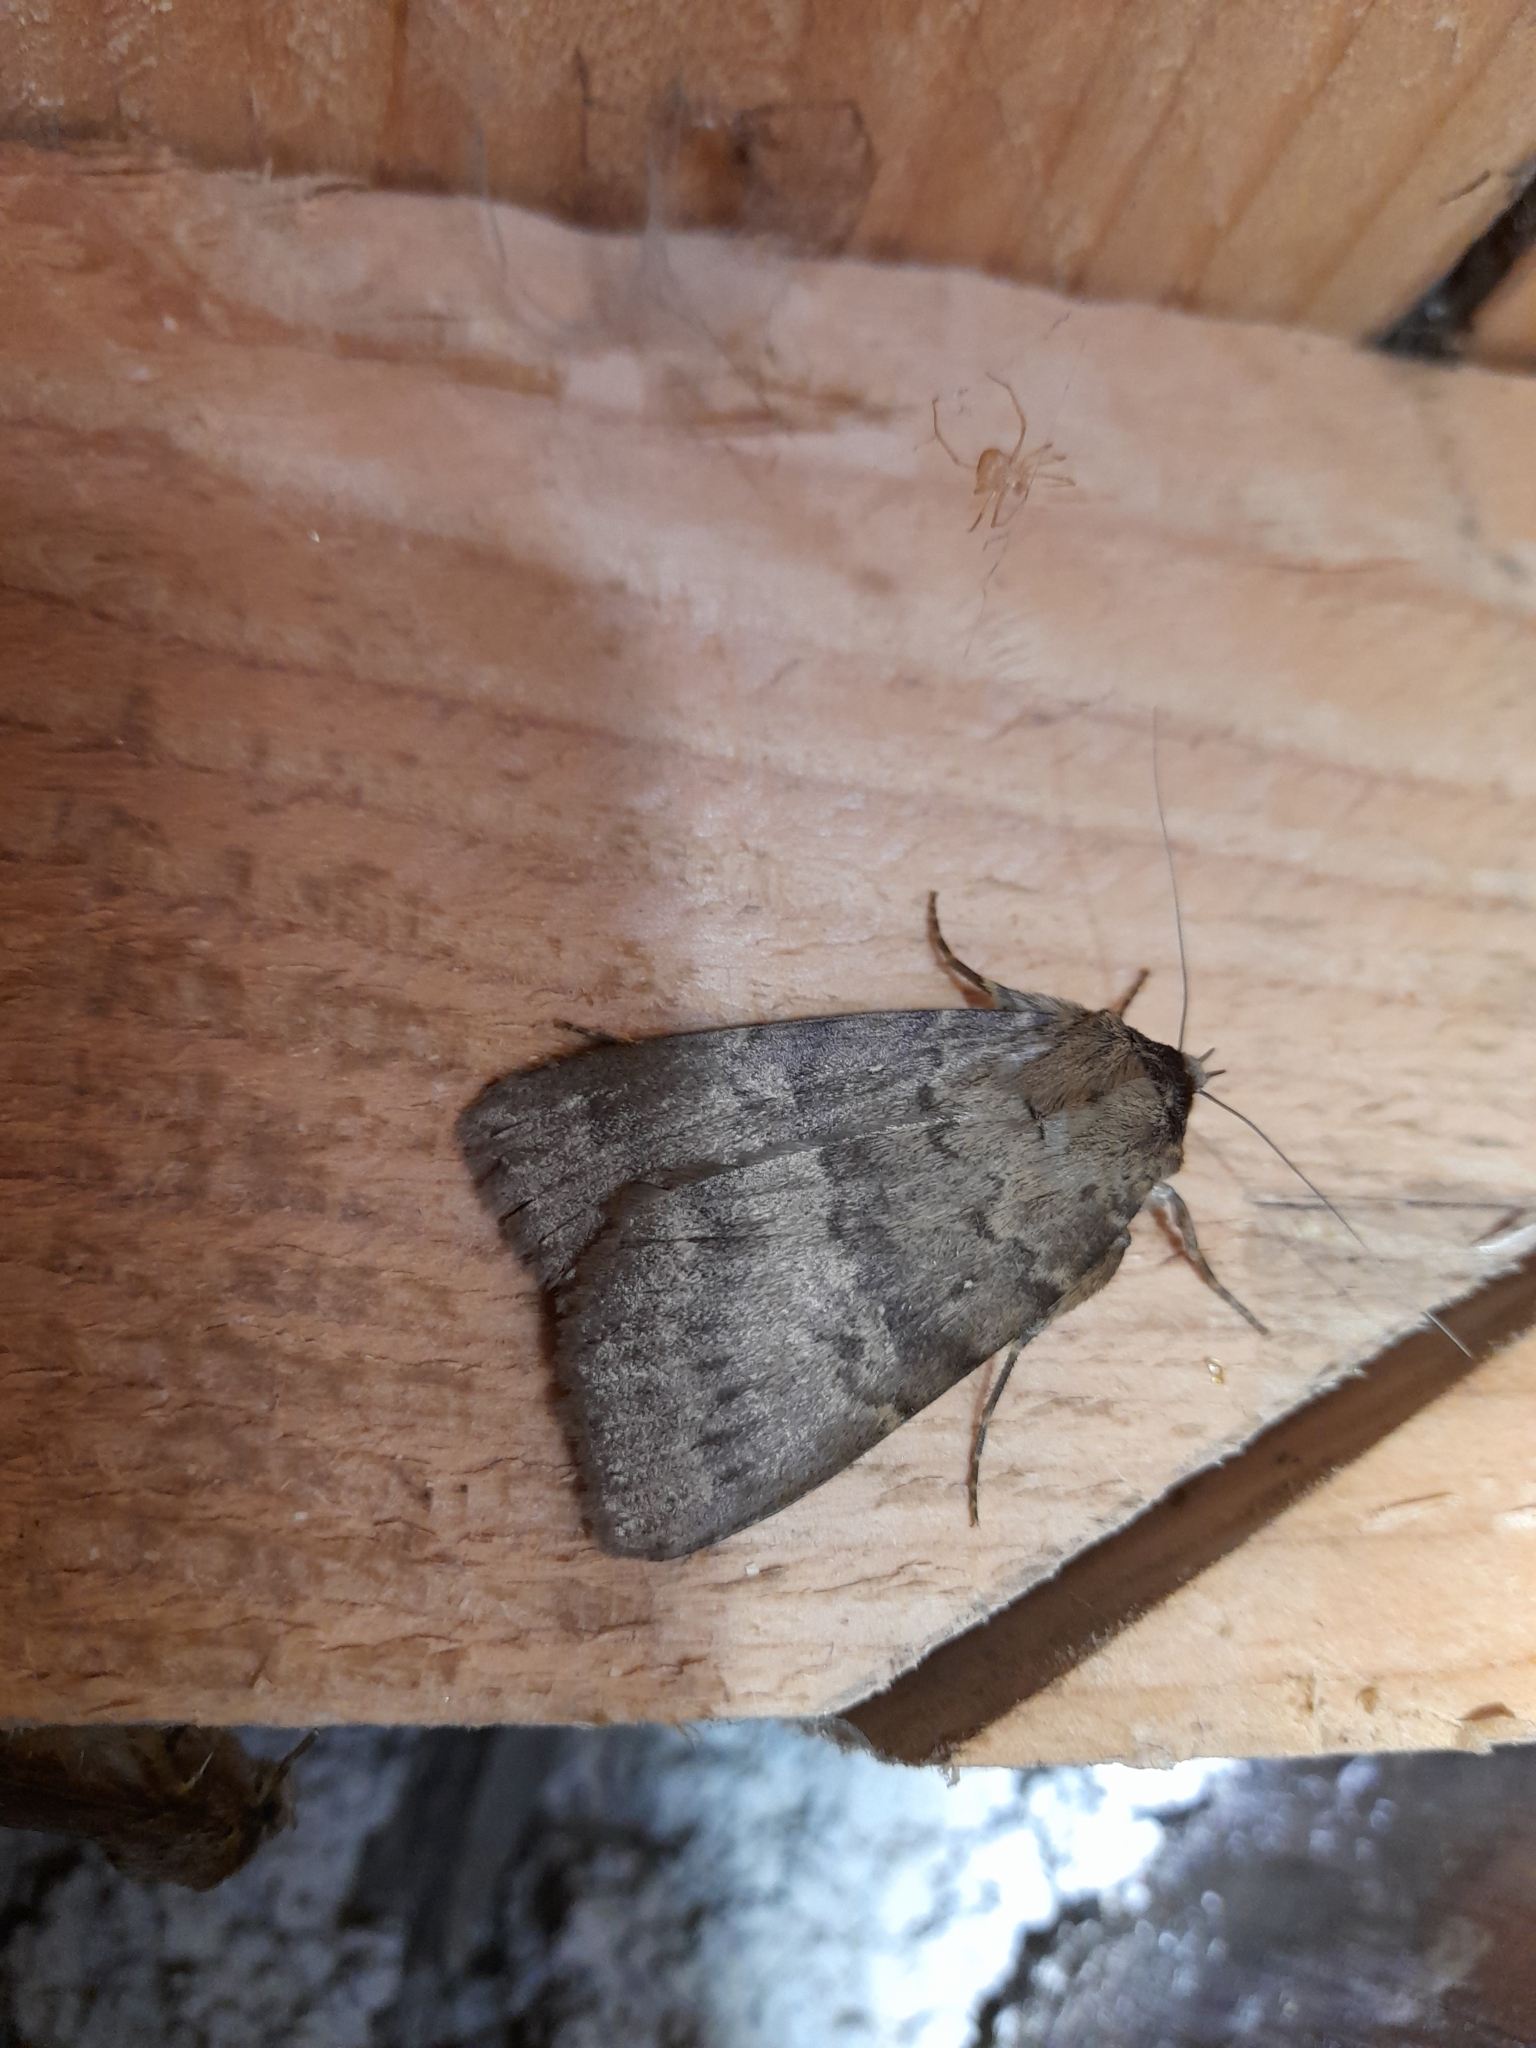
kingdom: Animalia
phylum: Arthropoda
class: Insecta
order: Lepidoptera
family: Erebidae
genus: Apopestes
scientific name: Apopestes spectrum
